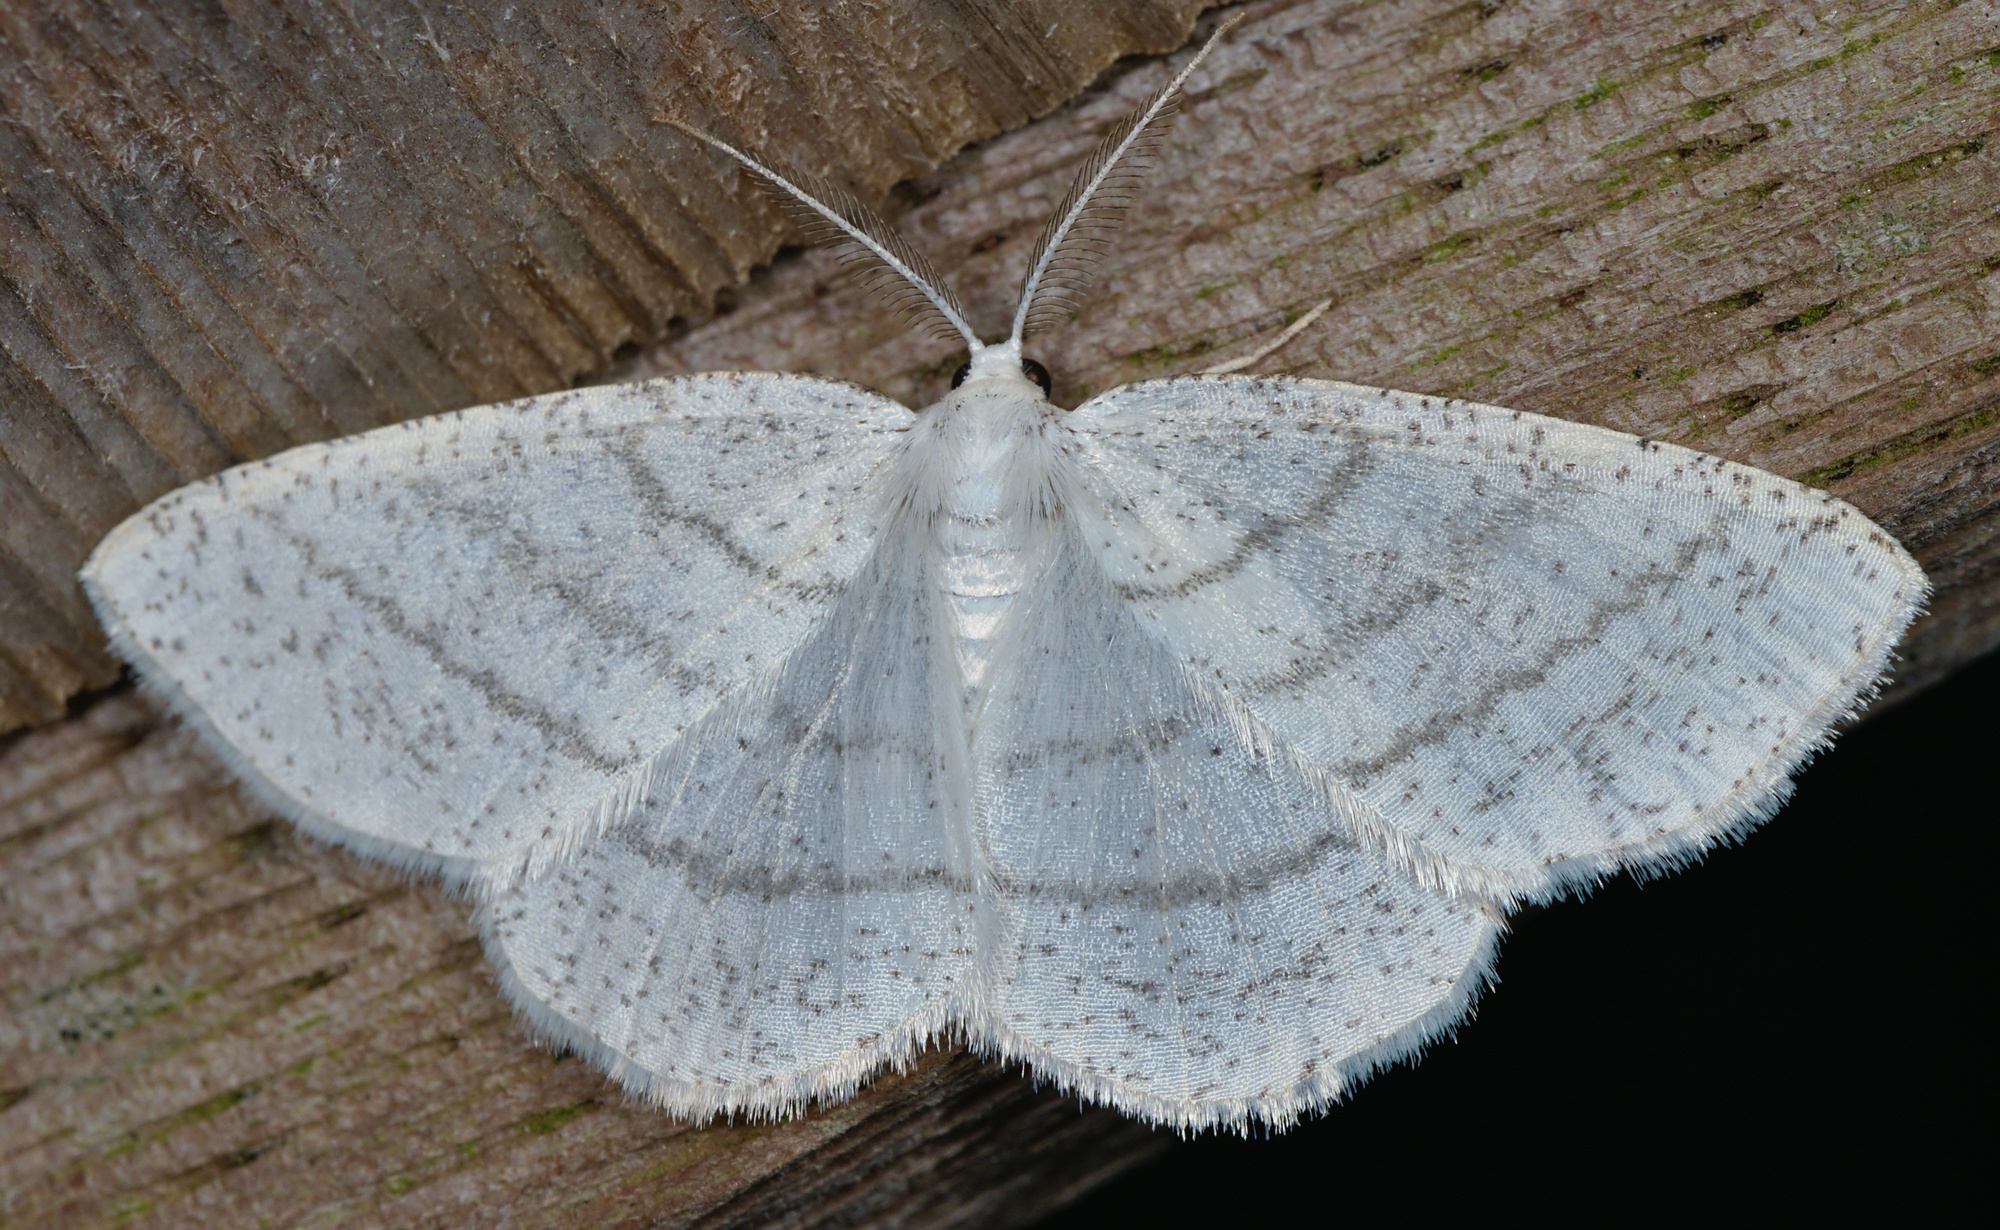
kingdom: Animalia
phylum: Arthropoda
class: Insecta
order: Lepidoptera
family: Geometridae
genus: Cabera
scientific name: Cabera pusaria
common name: Common white wave
